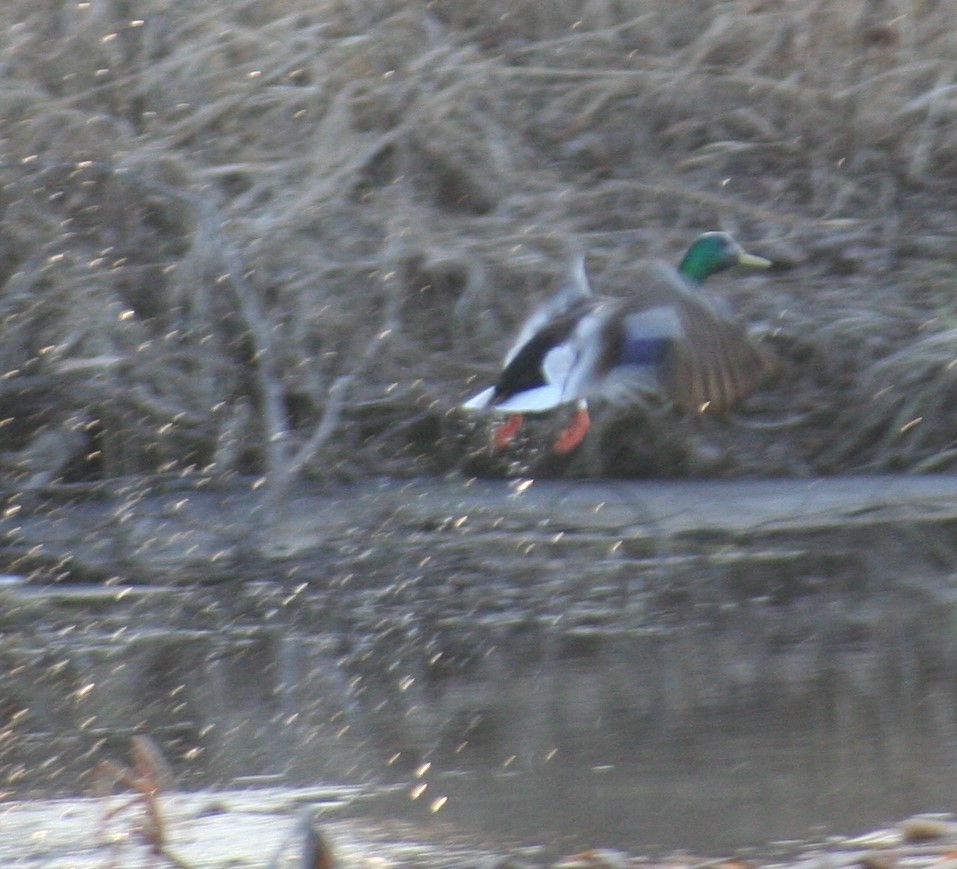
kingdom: Animalia
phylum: Chordata
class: Aves
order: Anseriformes
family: Anatidae
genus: Anas
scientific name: Anas platyrhynchos
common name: Mallard
